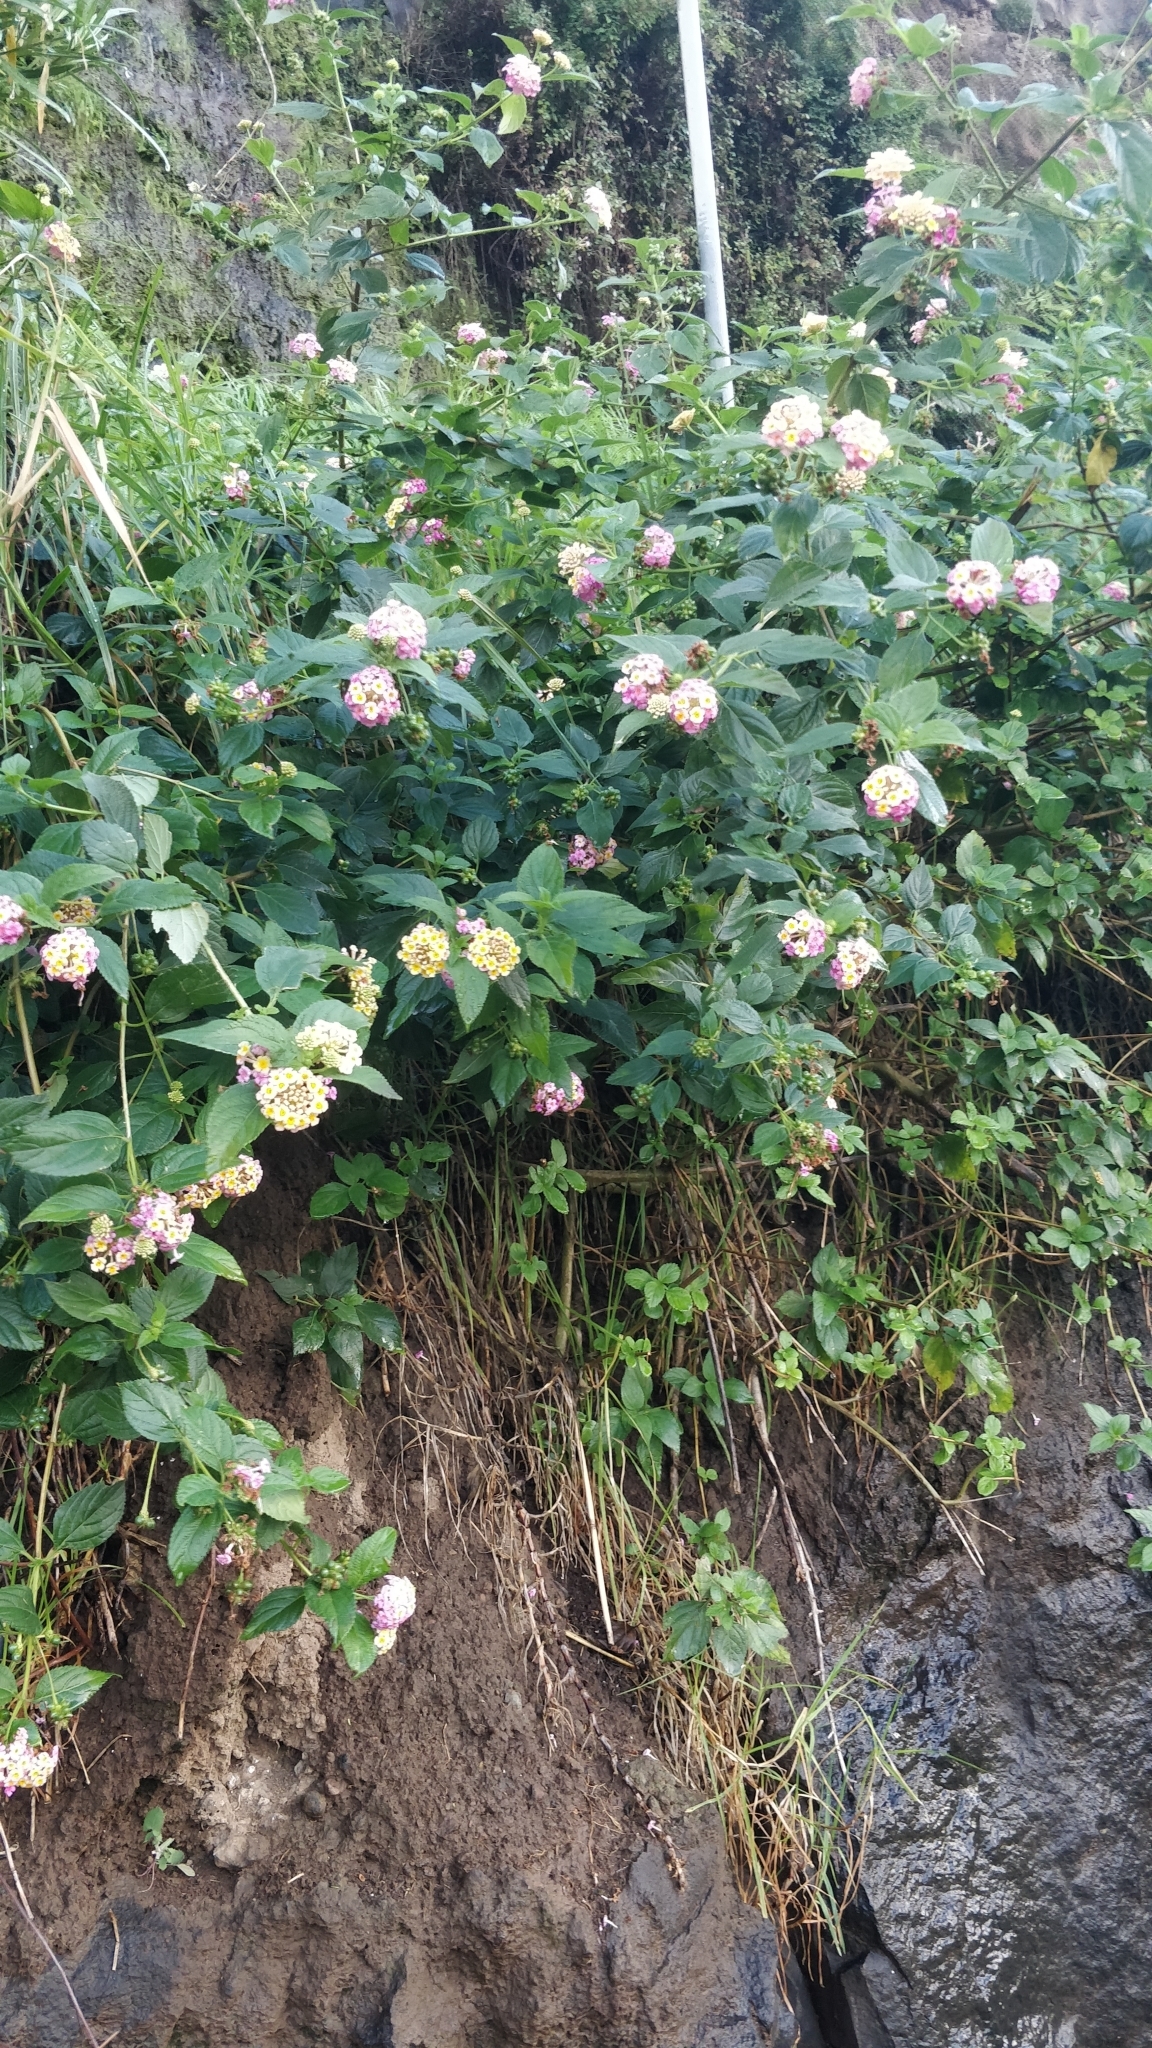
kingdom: Plantae
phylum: Tracheophyta
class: Magnoliopsida
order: Lamiales
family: Verbenaceae
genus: Lantana
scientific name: Lantana camara
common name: Lantana
